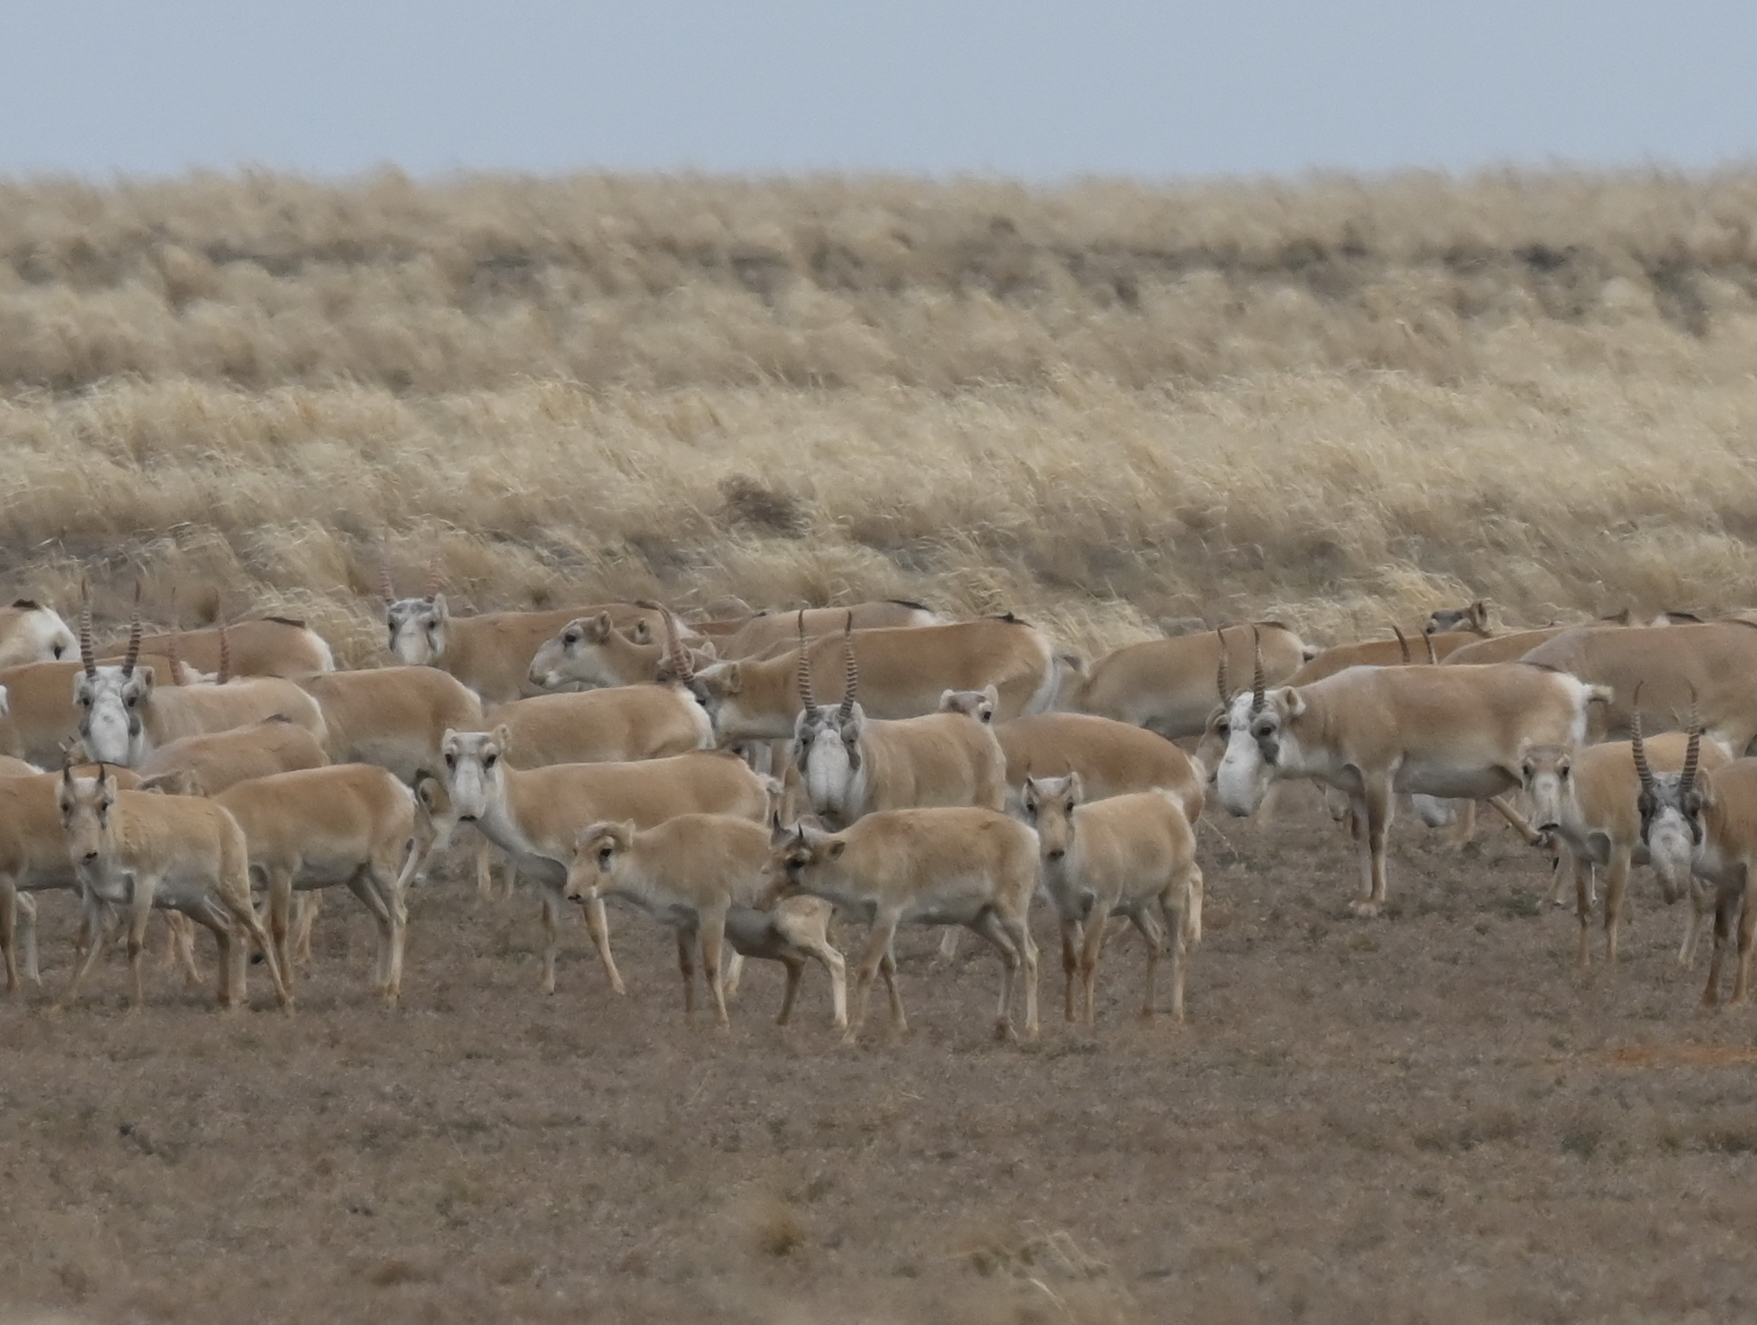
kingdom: Animalia
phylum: Chordata
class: Mammalia
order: Artiodactyla
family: Bovidae
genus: Saiga
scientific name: Saiga tatarica
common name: Saiga
